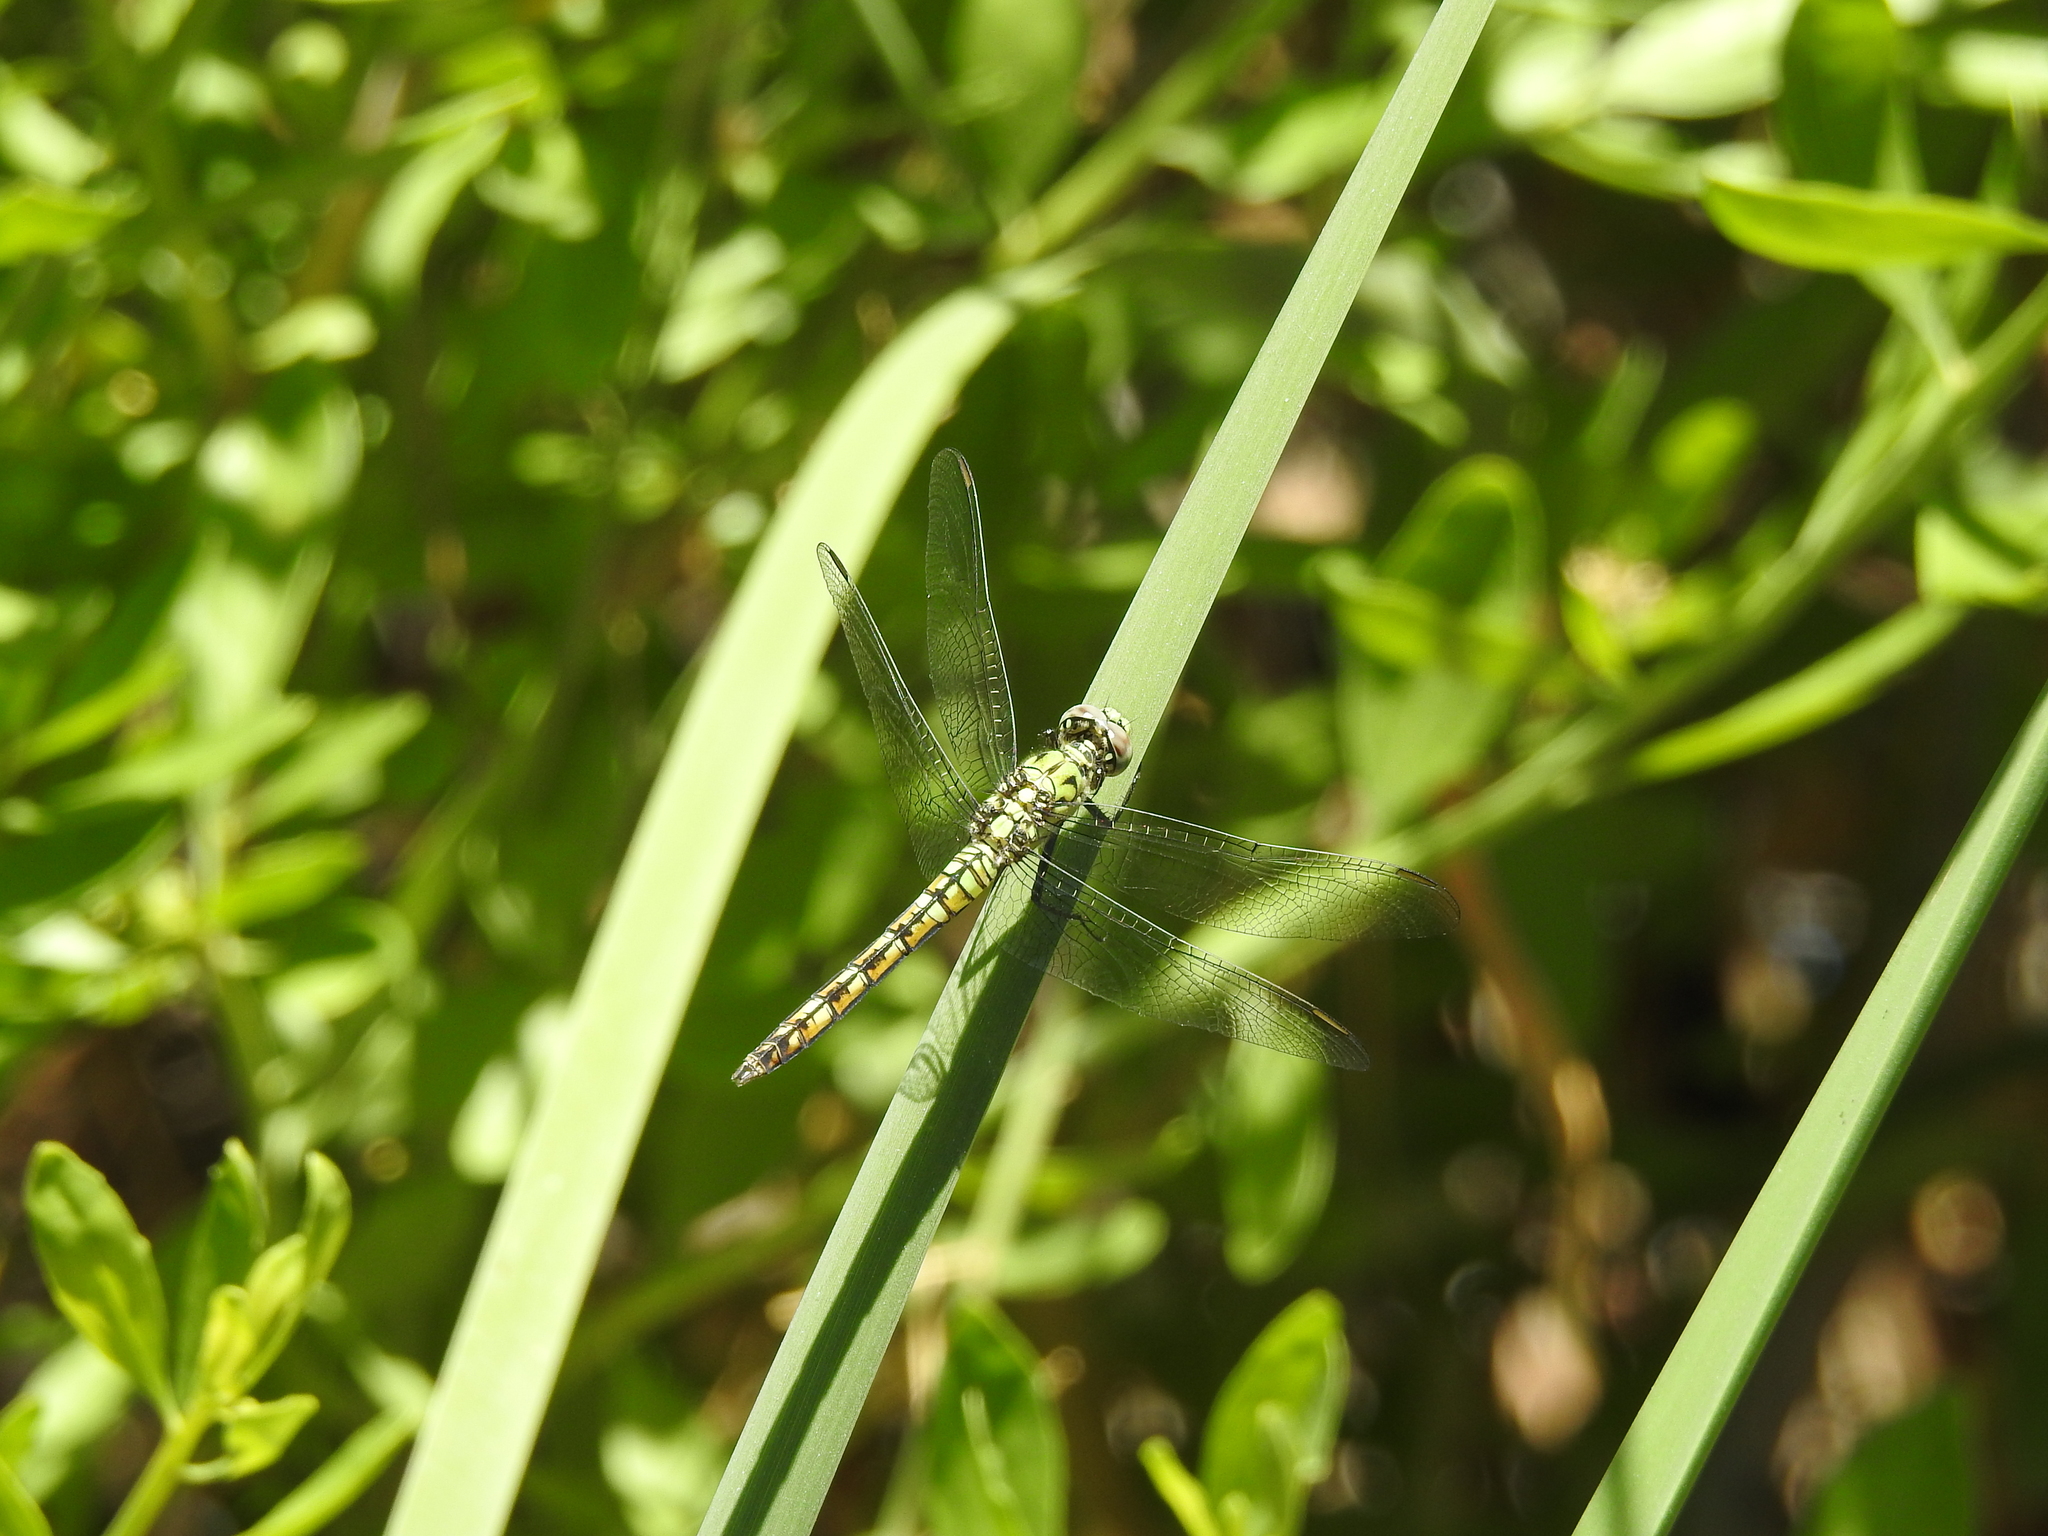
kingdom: Animalia
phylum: Arthropoda
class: Insecta
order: Odonata
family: Libellulidae
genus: Erythemis
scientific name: Erythemis collocata
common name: Western pondhawk
